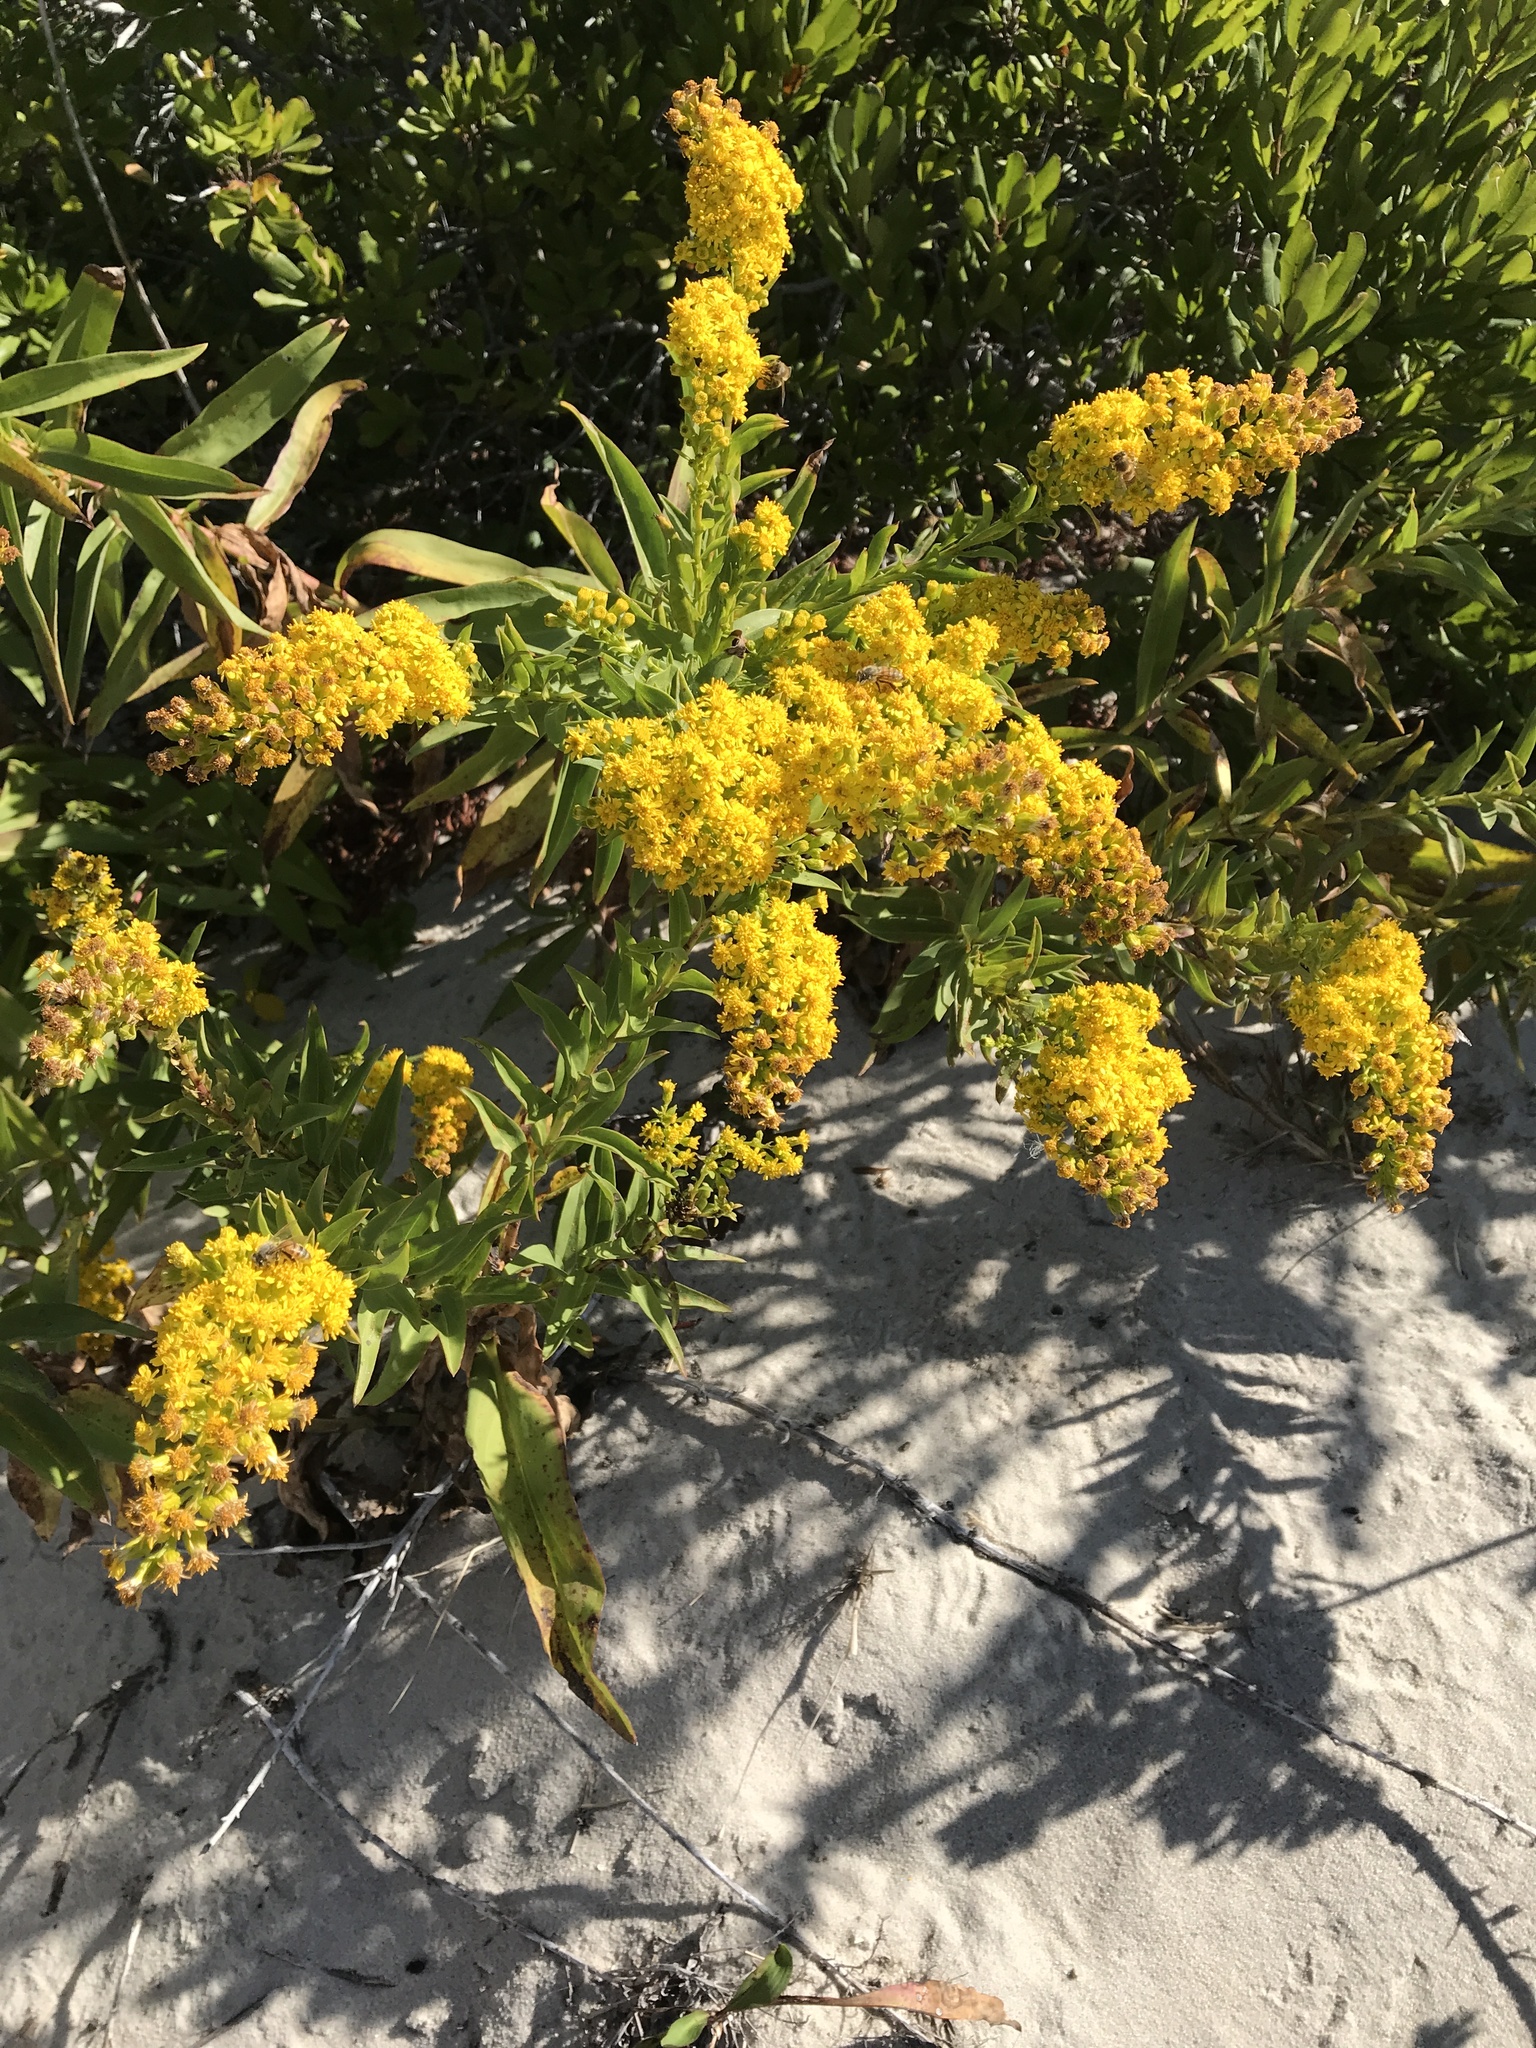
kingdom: Plantae
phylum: Tracheophyta
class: Magnoliopsida
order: Asterales
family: Asteraceae
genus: Solidago
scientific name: Solidago sempervirens
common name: Salt-marsh goldenrod
